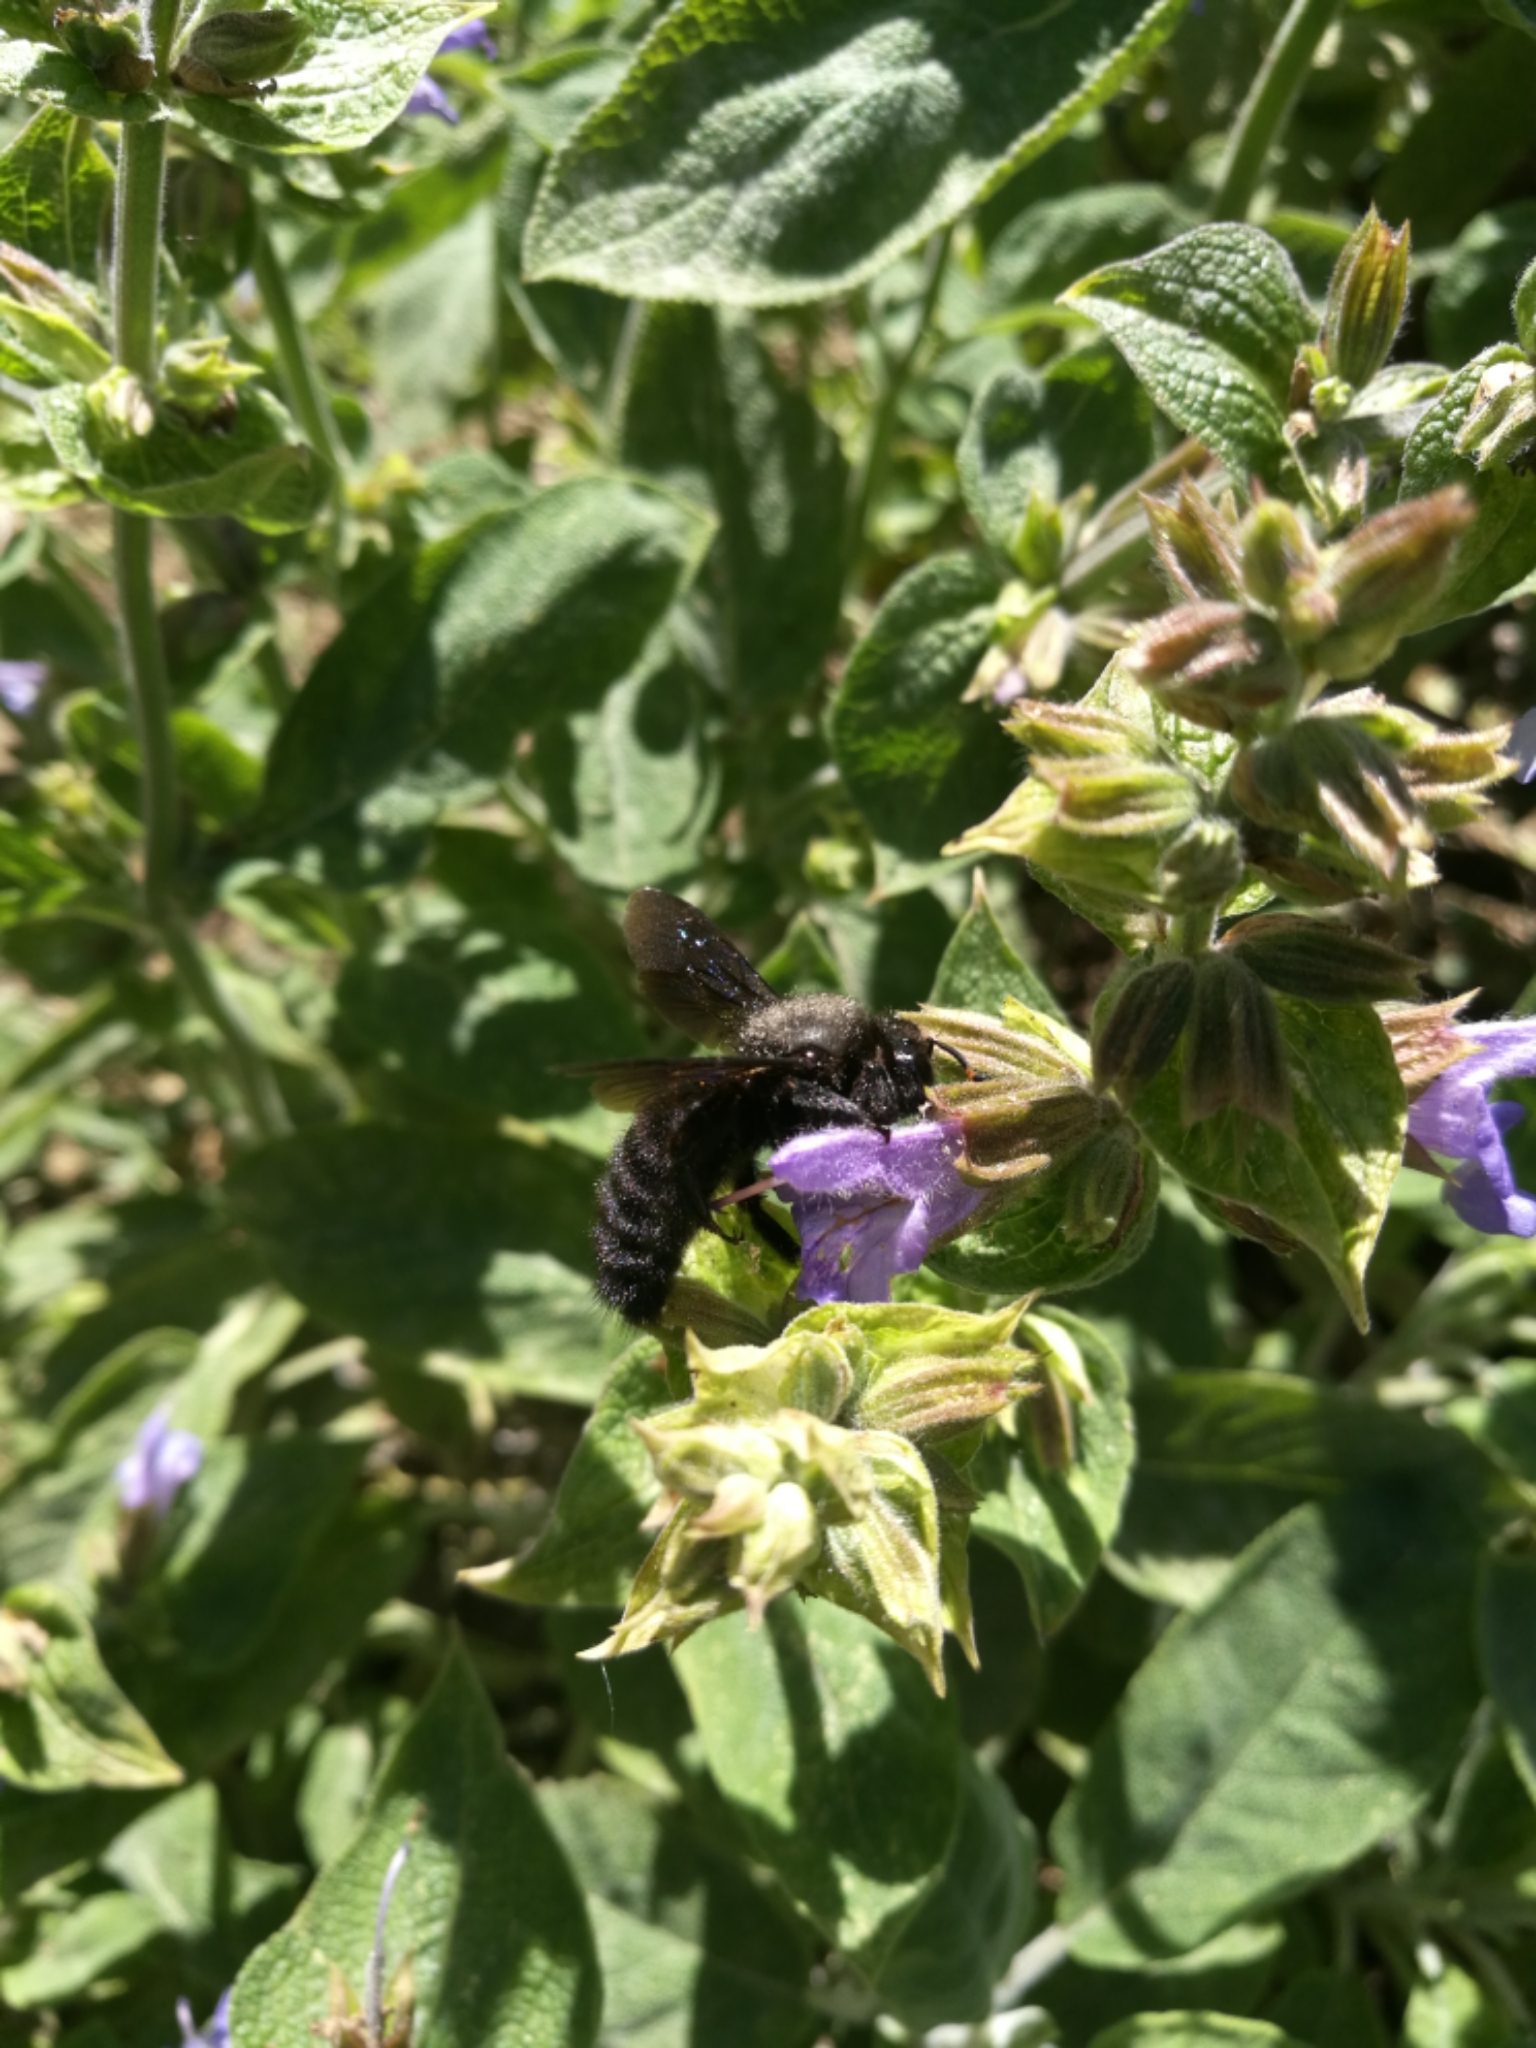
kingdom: Animalia
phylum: Arthropoda
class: Insecta
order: Hymenoptera
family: Apidae
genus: Xylocopa
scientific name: Xylocopa violacea
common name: Violet carpenter bee
